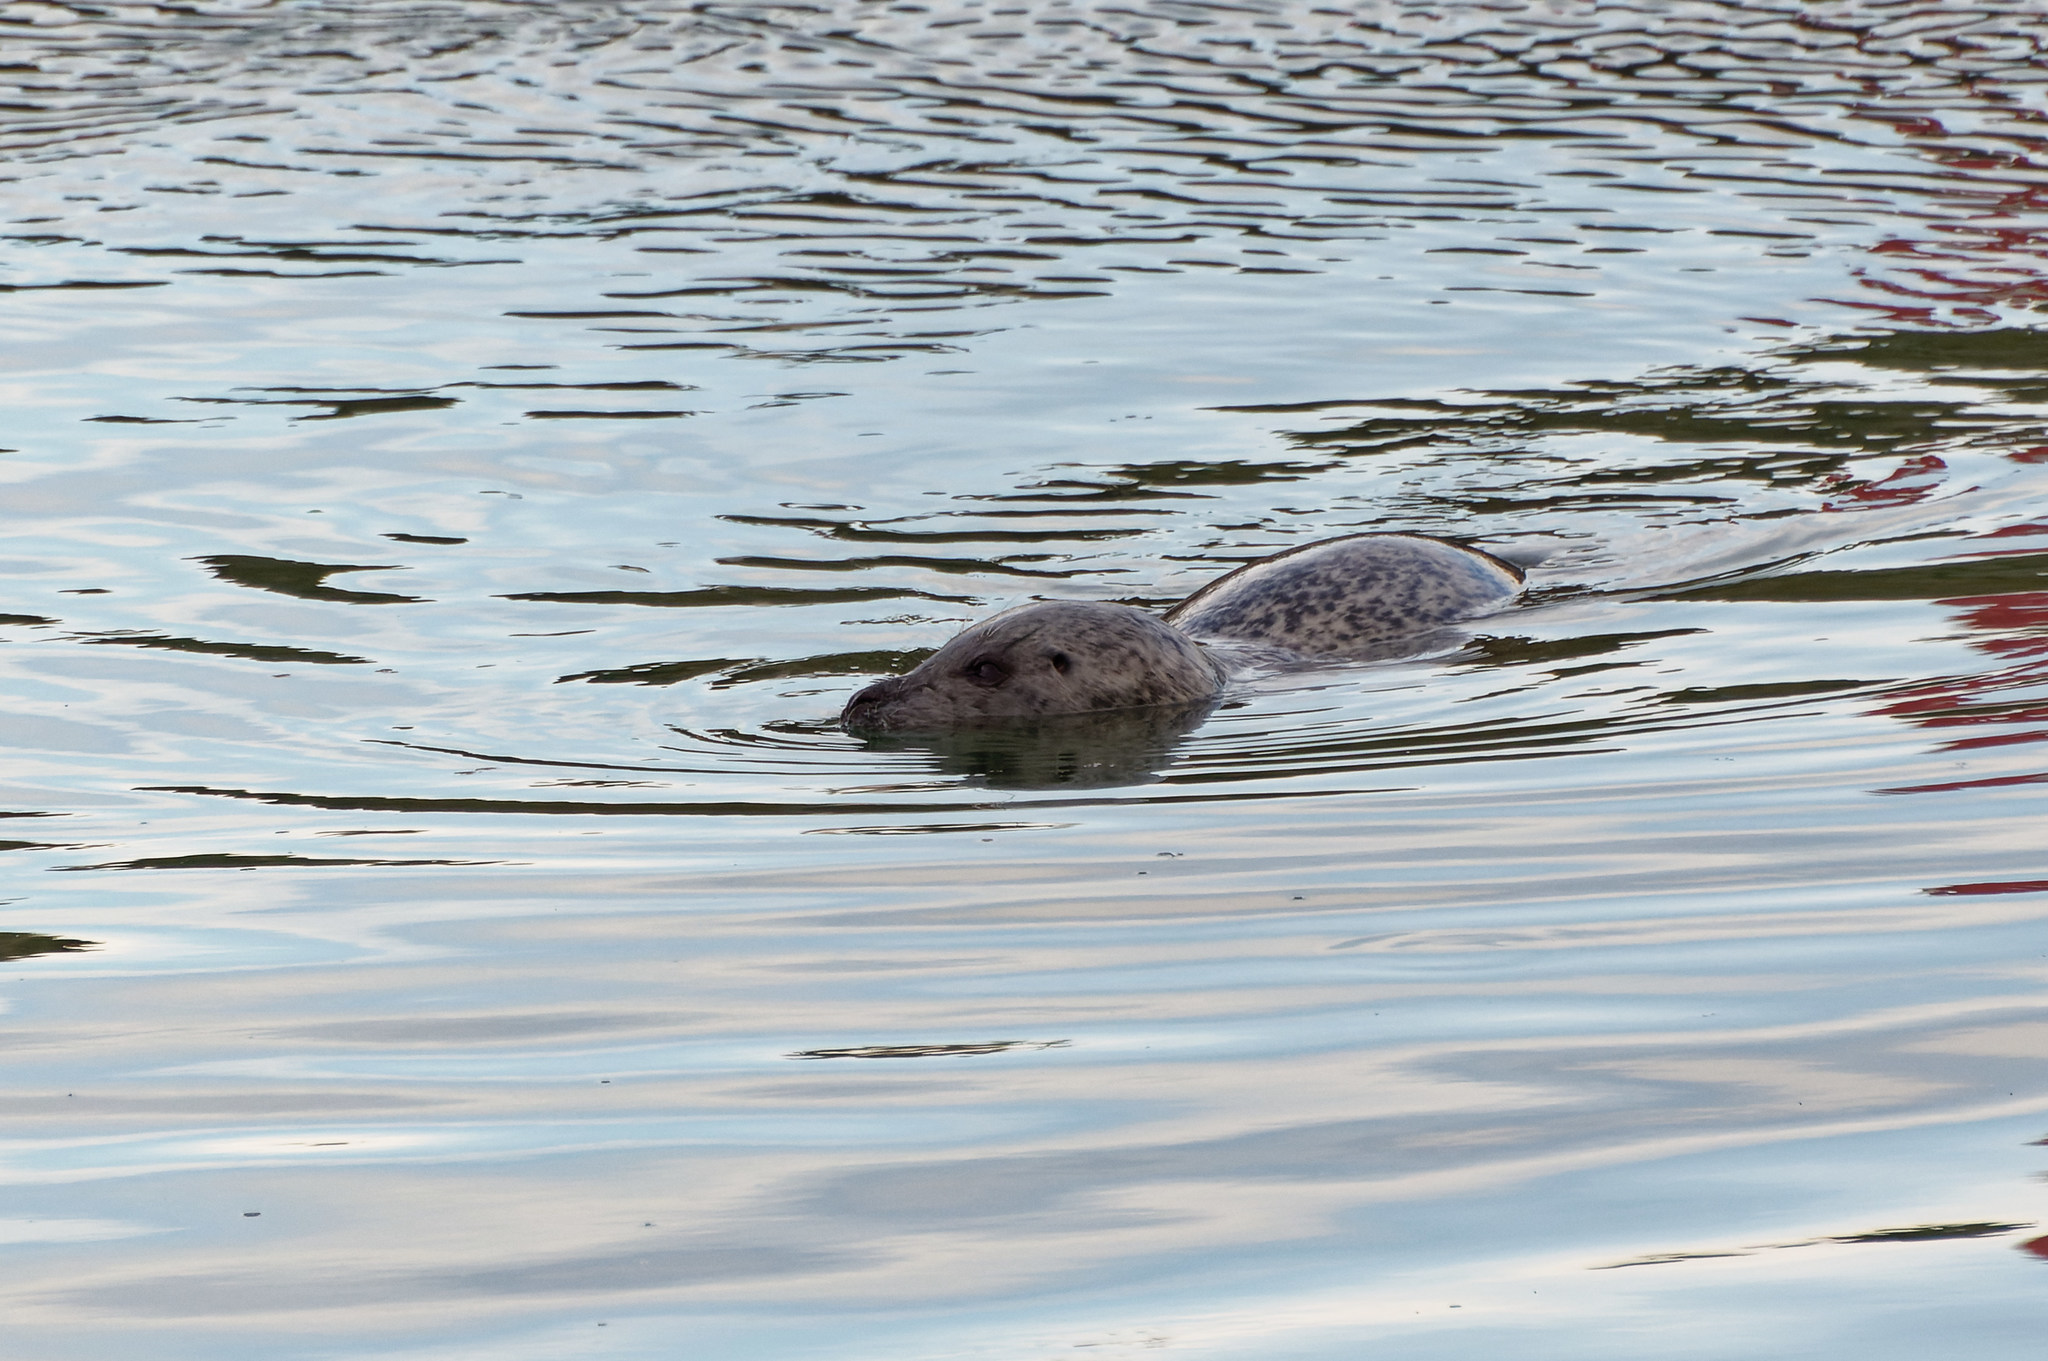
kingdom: Animalia
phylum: Chordata
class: Mammalia
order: Carnivora
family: Phocidae
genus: Phoca
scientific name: Phoca vitulina
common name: Harbor seal
